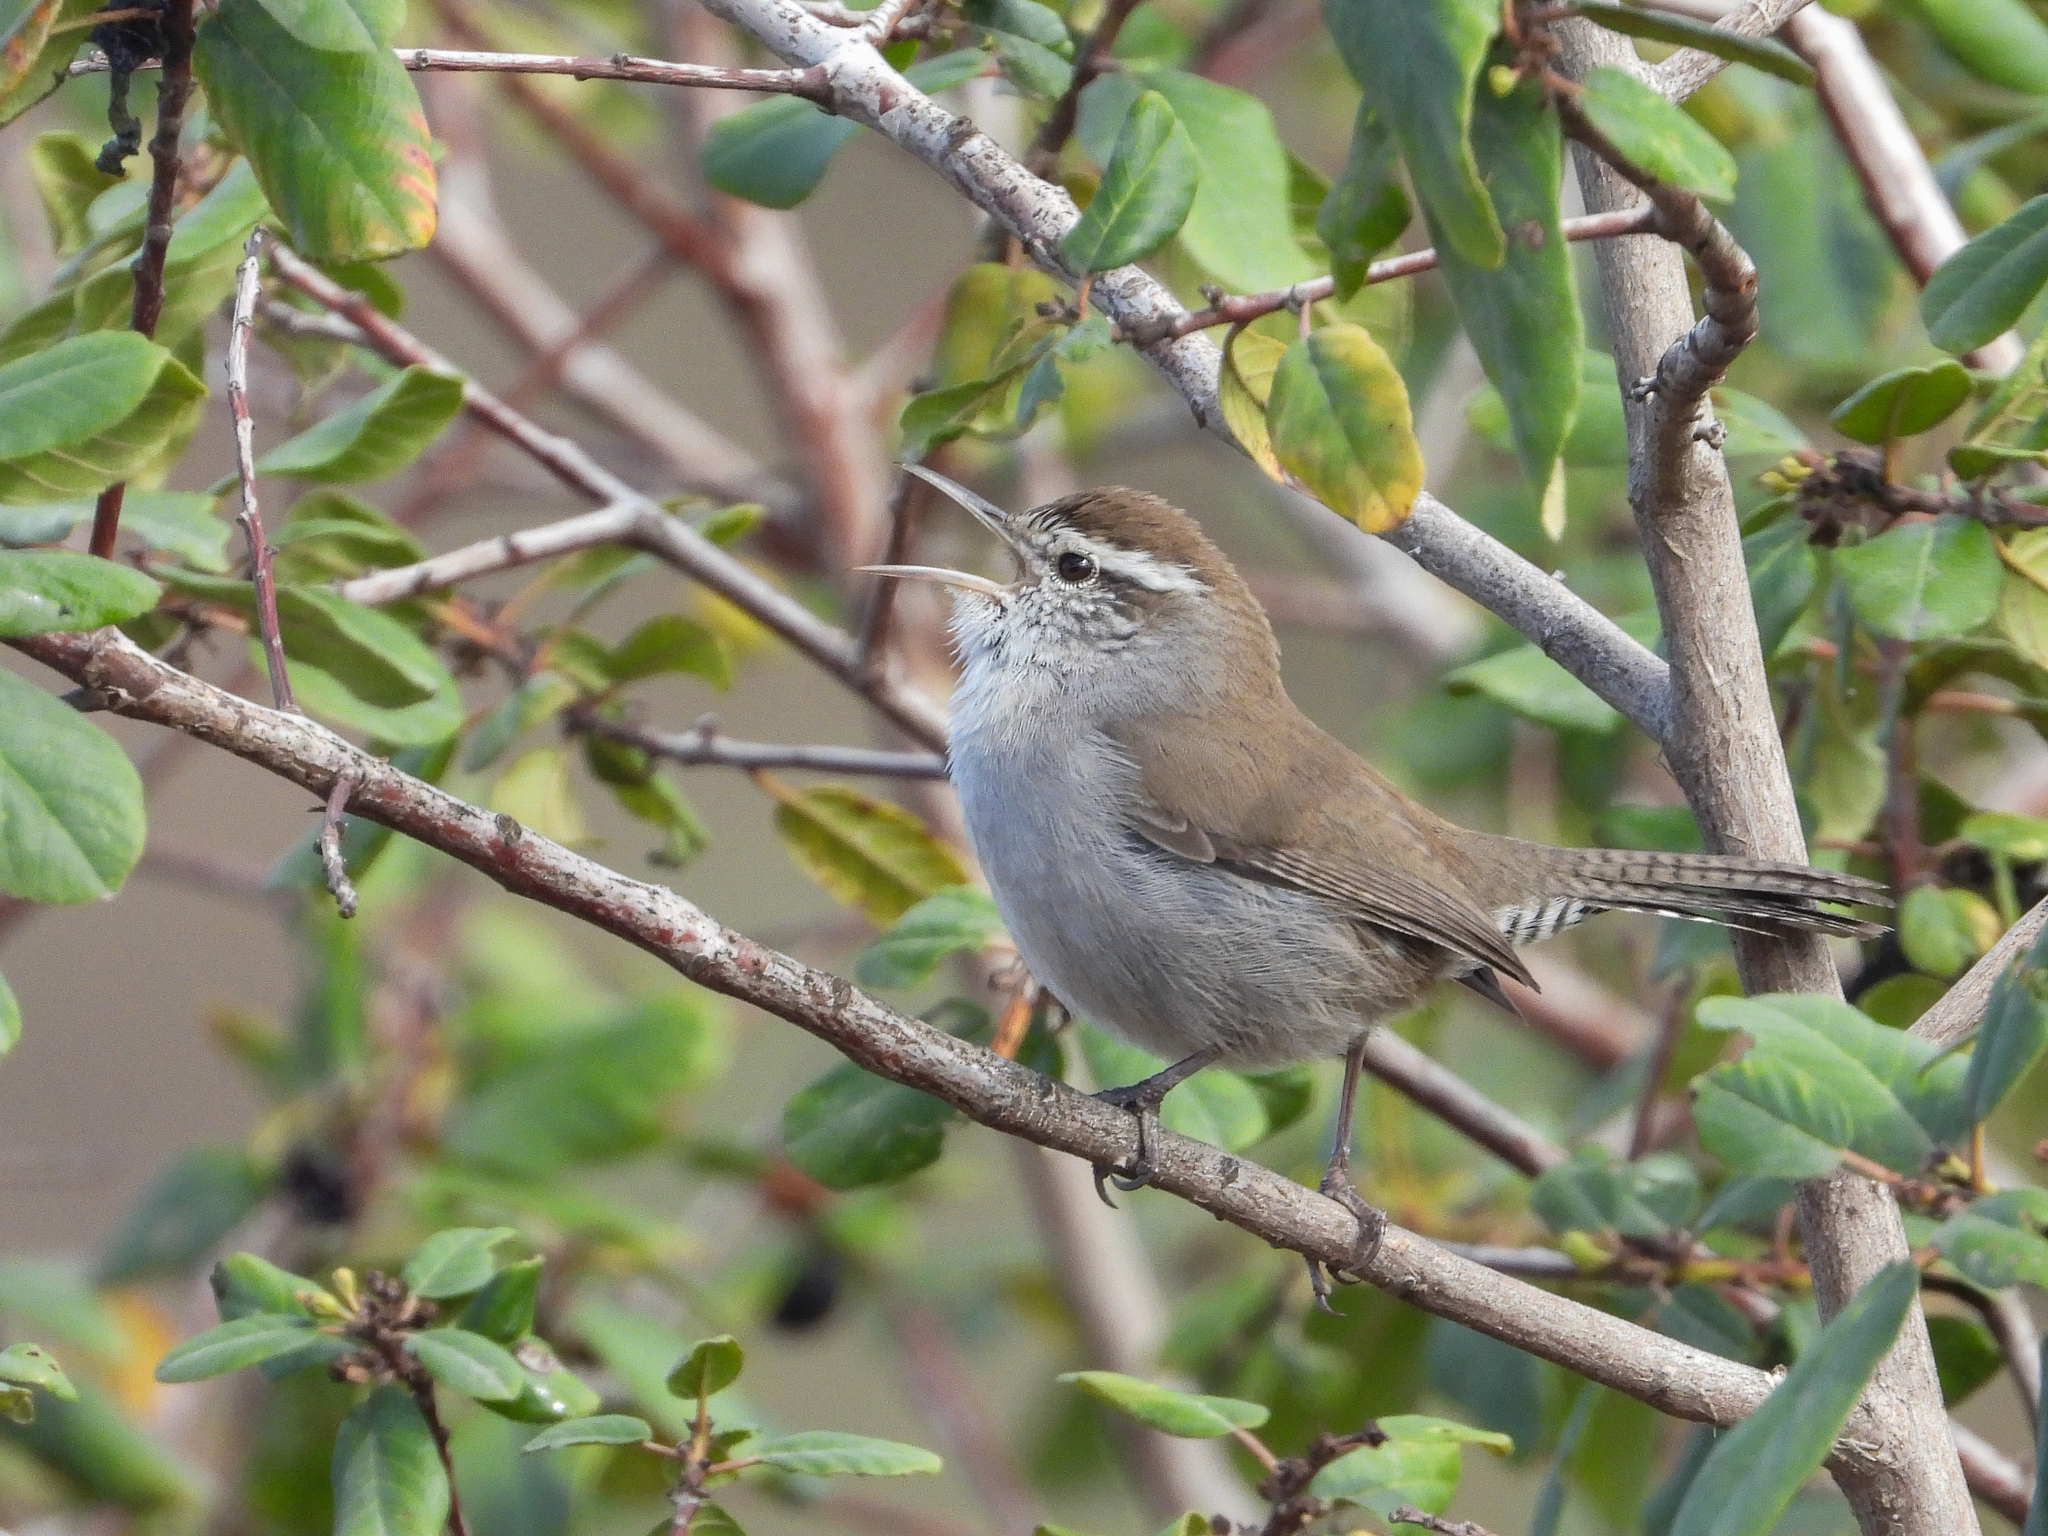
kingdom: Animalia
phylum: Chordata
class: Aves
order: Passeriformes
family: Troglodytidae
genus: Thryomanes
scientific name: Thryomanes bewickii
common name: Bewick's wren
